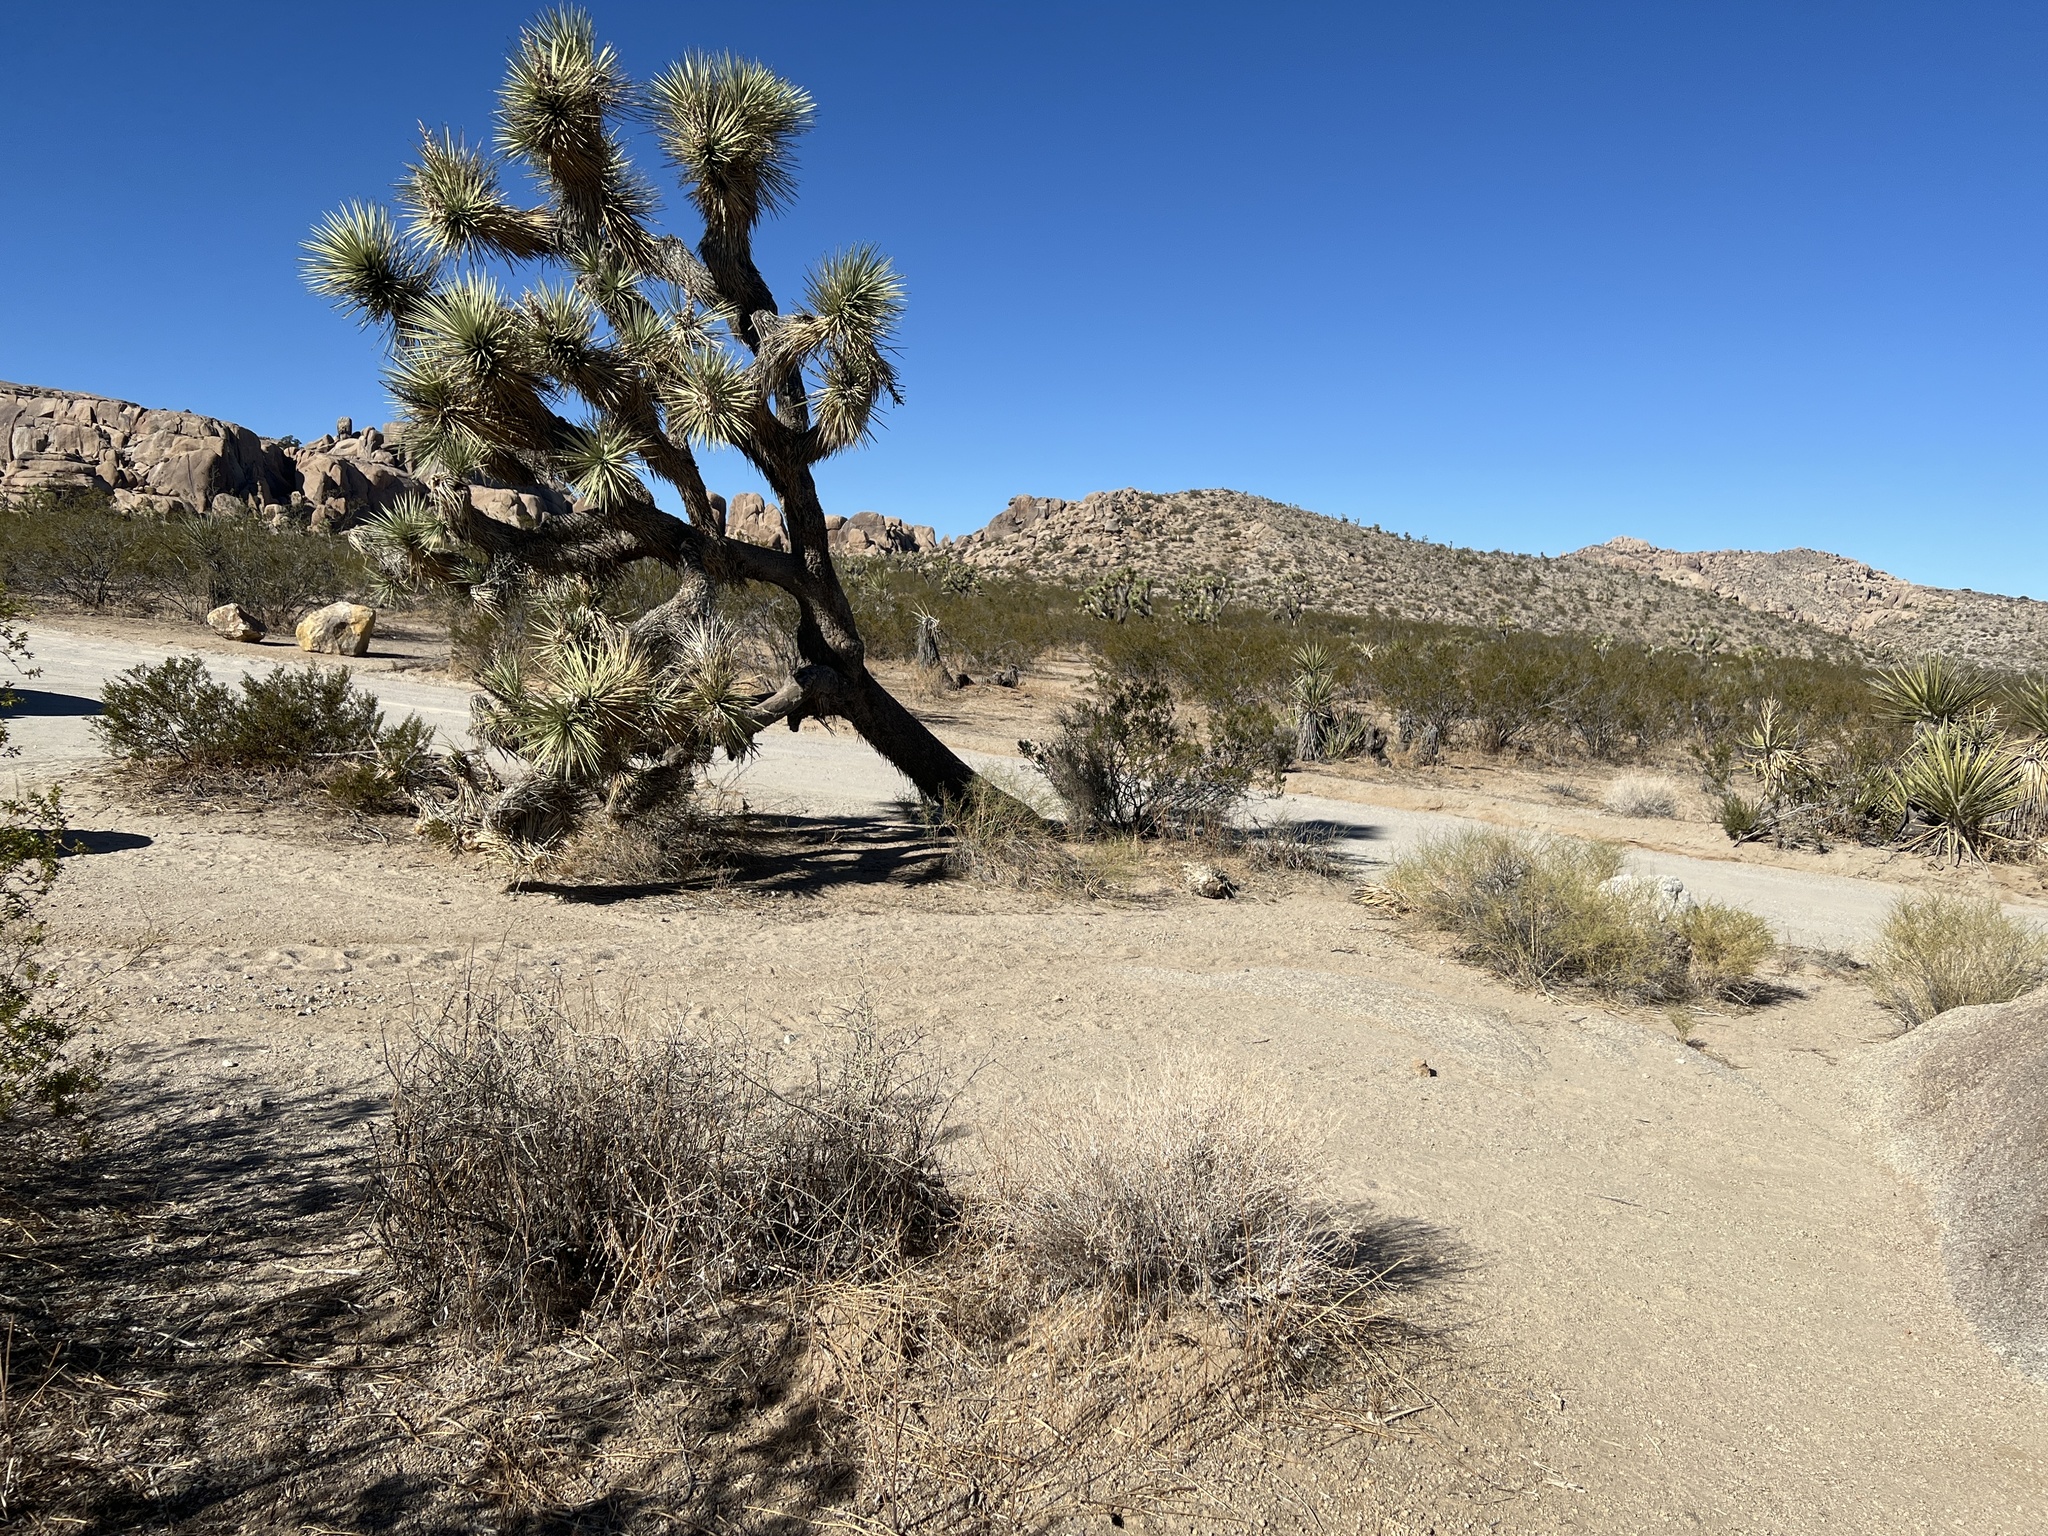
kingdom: Plantae
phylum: Tracheophyta
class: Liliopsida
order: Asparagales
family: Asparagaceae
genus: Yucca
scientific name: Yucca brevifolia
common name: Joshua tree
